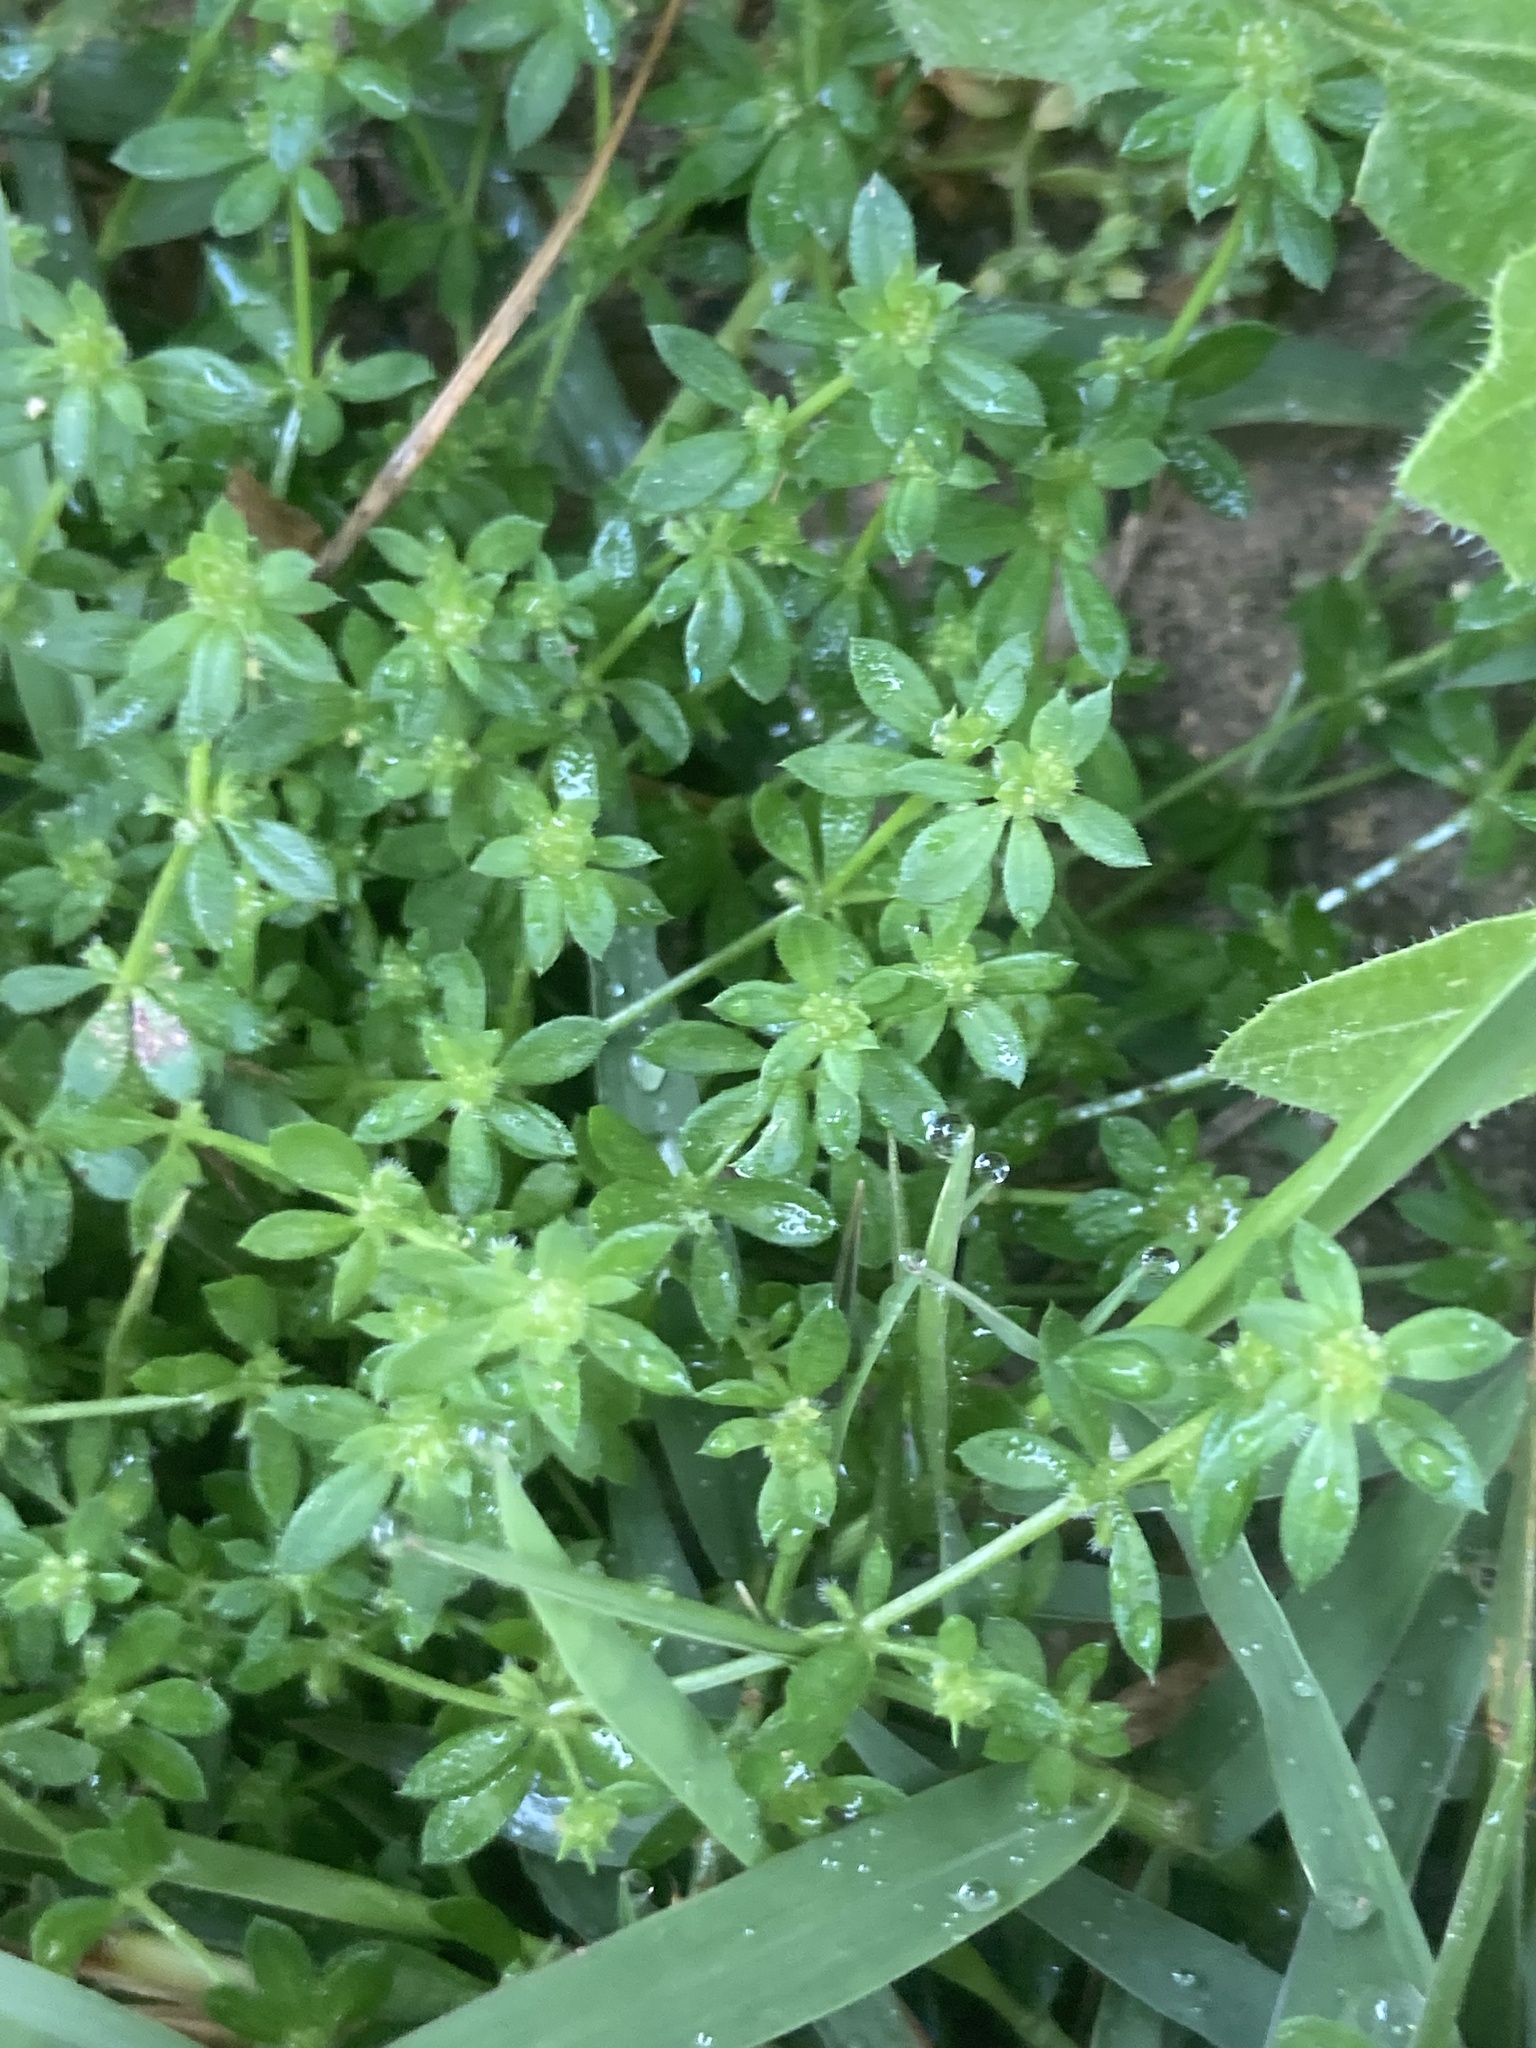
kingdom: Plantae
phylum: Tracheophyta
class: Magnoliopsida
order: Gentianales
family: Rubiaceae
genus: Galium
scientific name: Galium murale
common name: Yellow wall bedstraw
